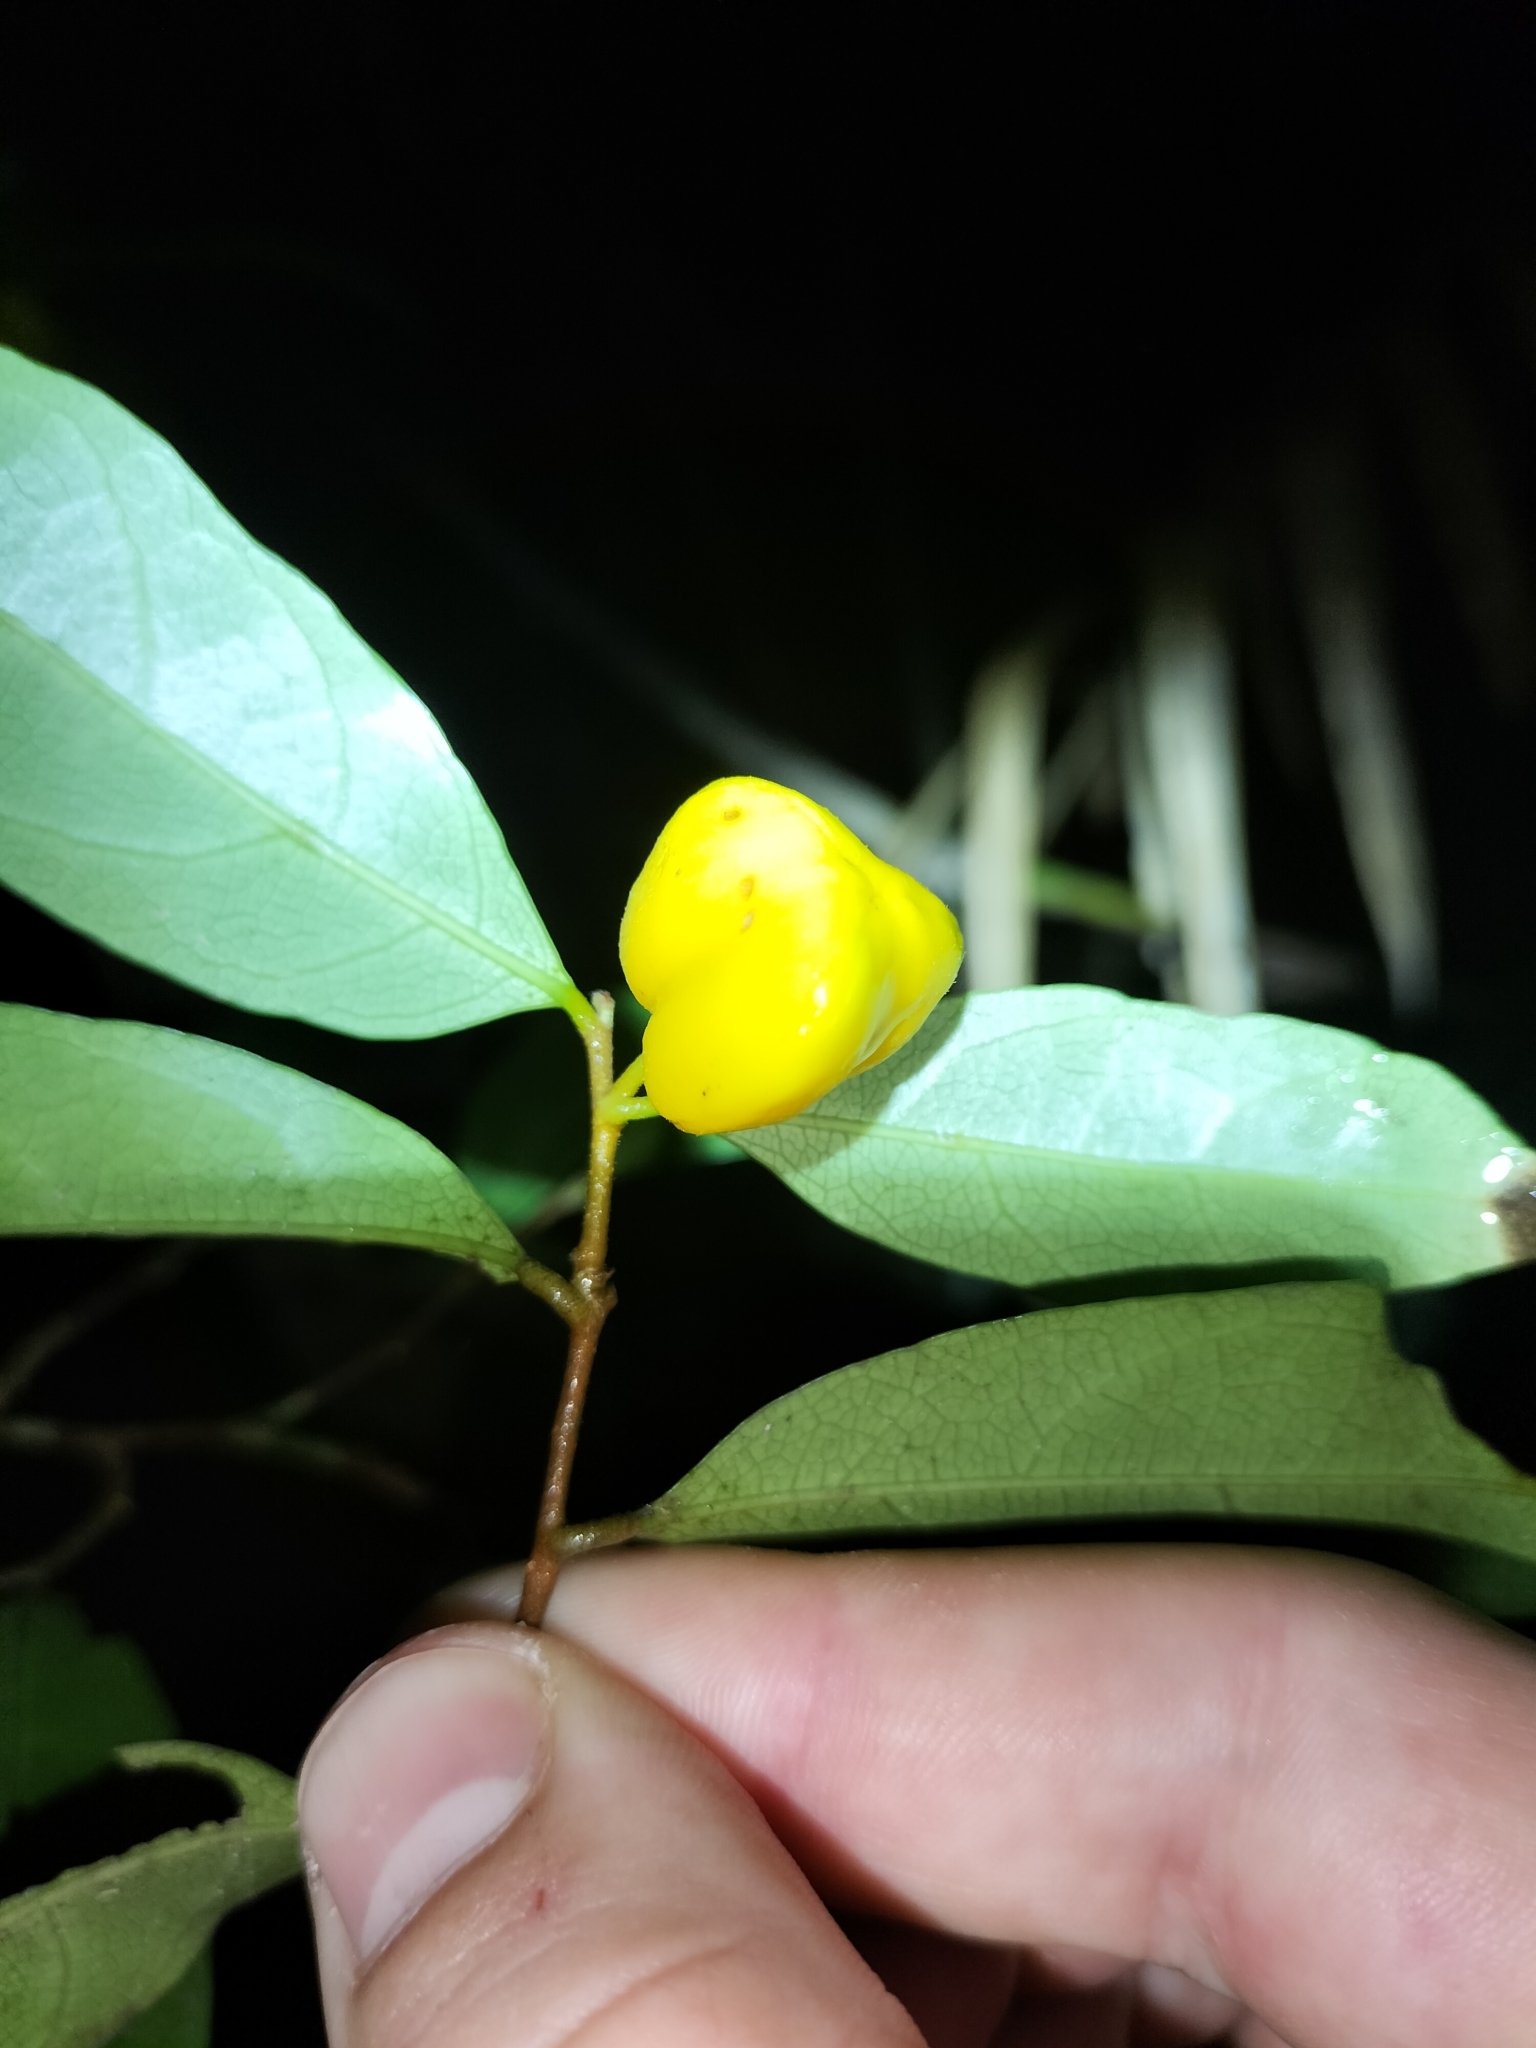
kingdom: Plantae
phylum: Tracheophyta
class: Magnoliopsida
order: Malpighiales
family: Dichapetalaceae
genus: Dichapetalum
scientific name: Dichapetalum papuanum
